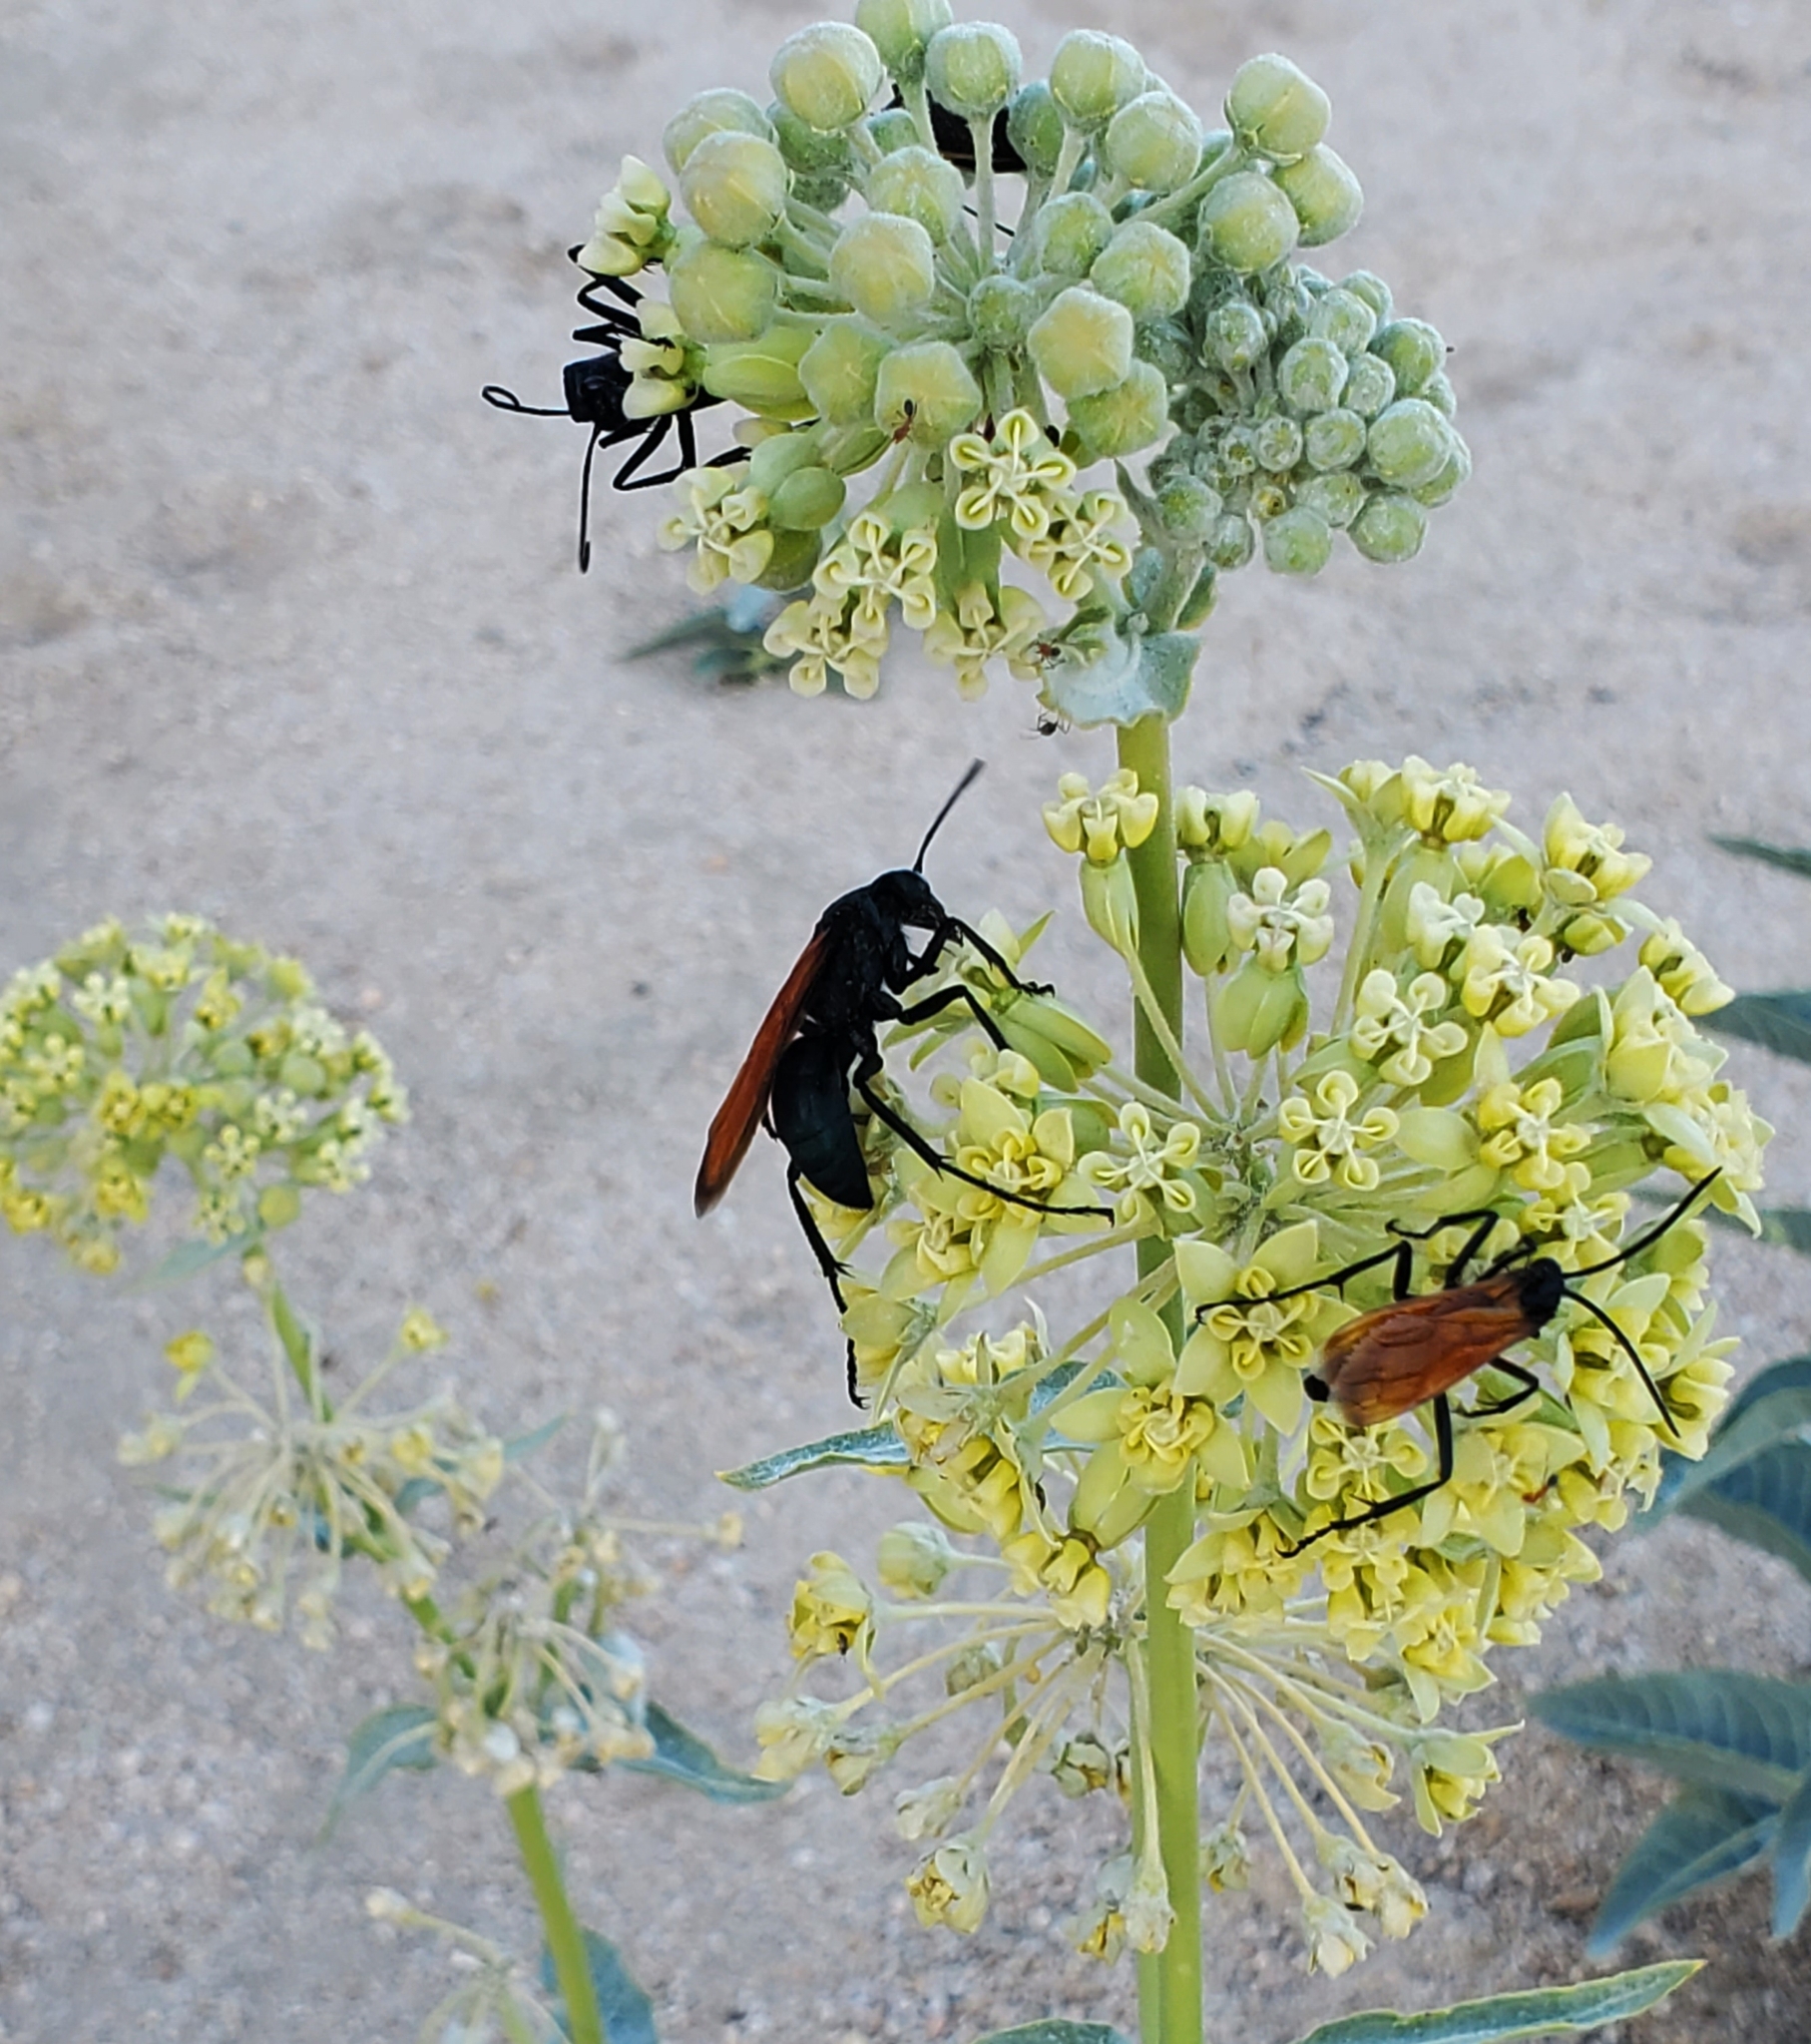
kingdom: Plantae
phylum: Tracheophyta
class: Magnoliopsida
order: Gentianales
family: Apocynaceae
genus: Asclepias
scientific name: Asclepias erosa
